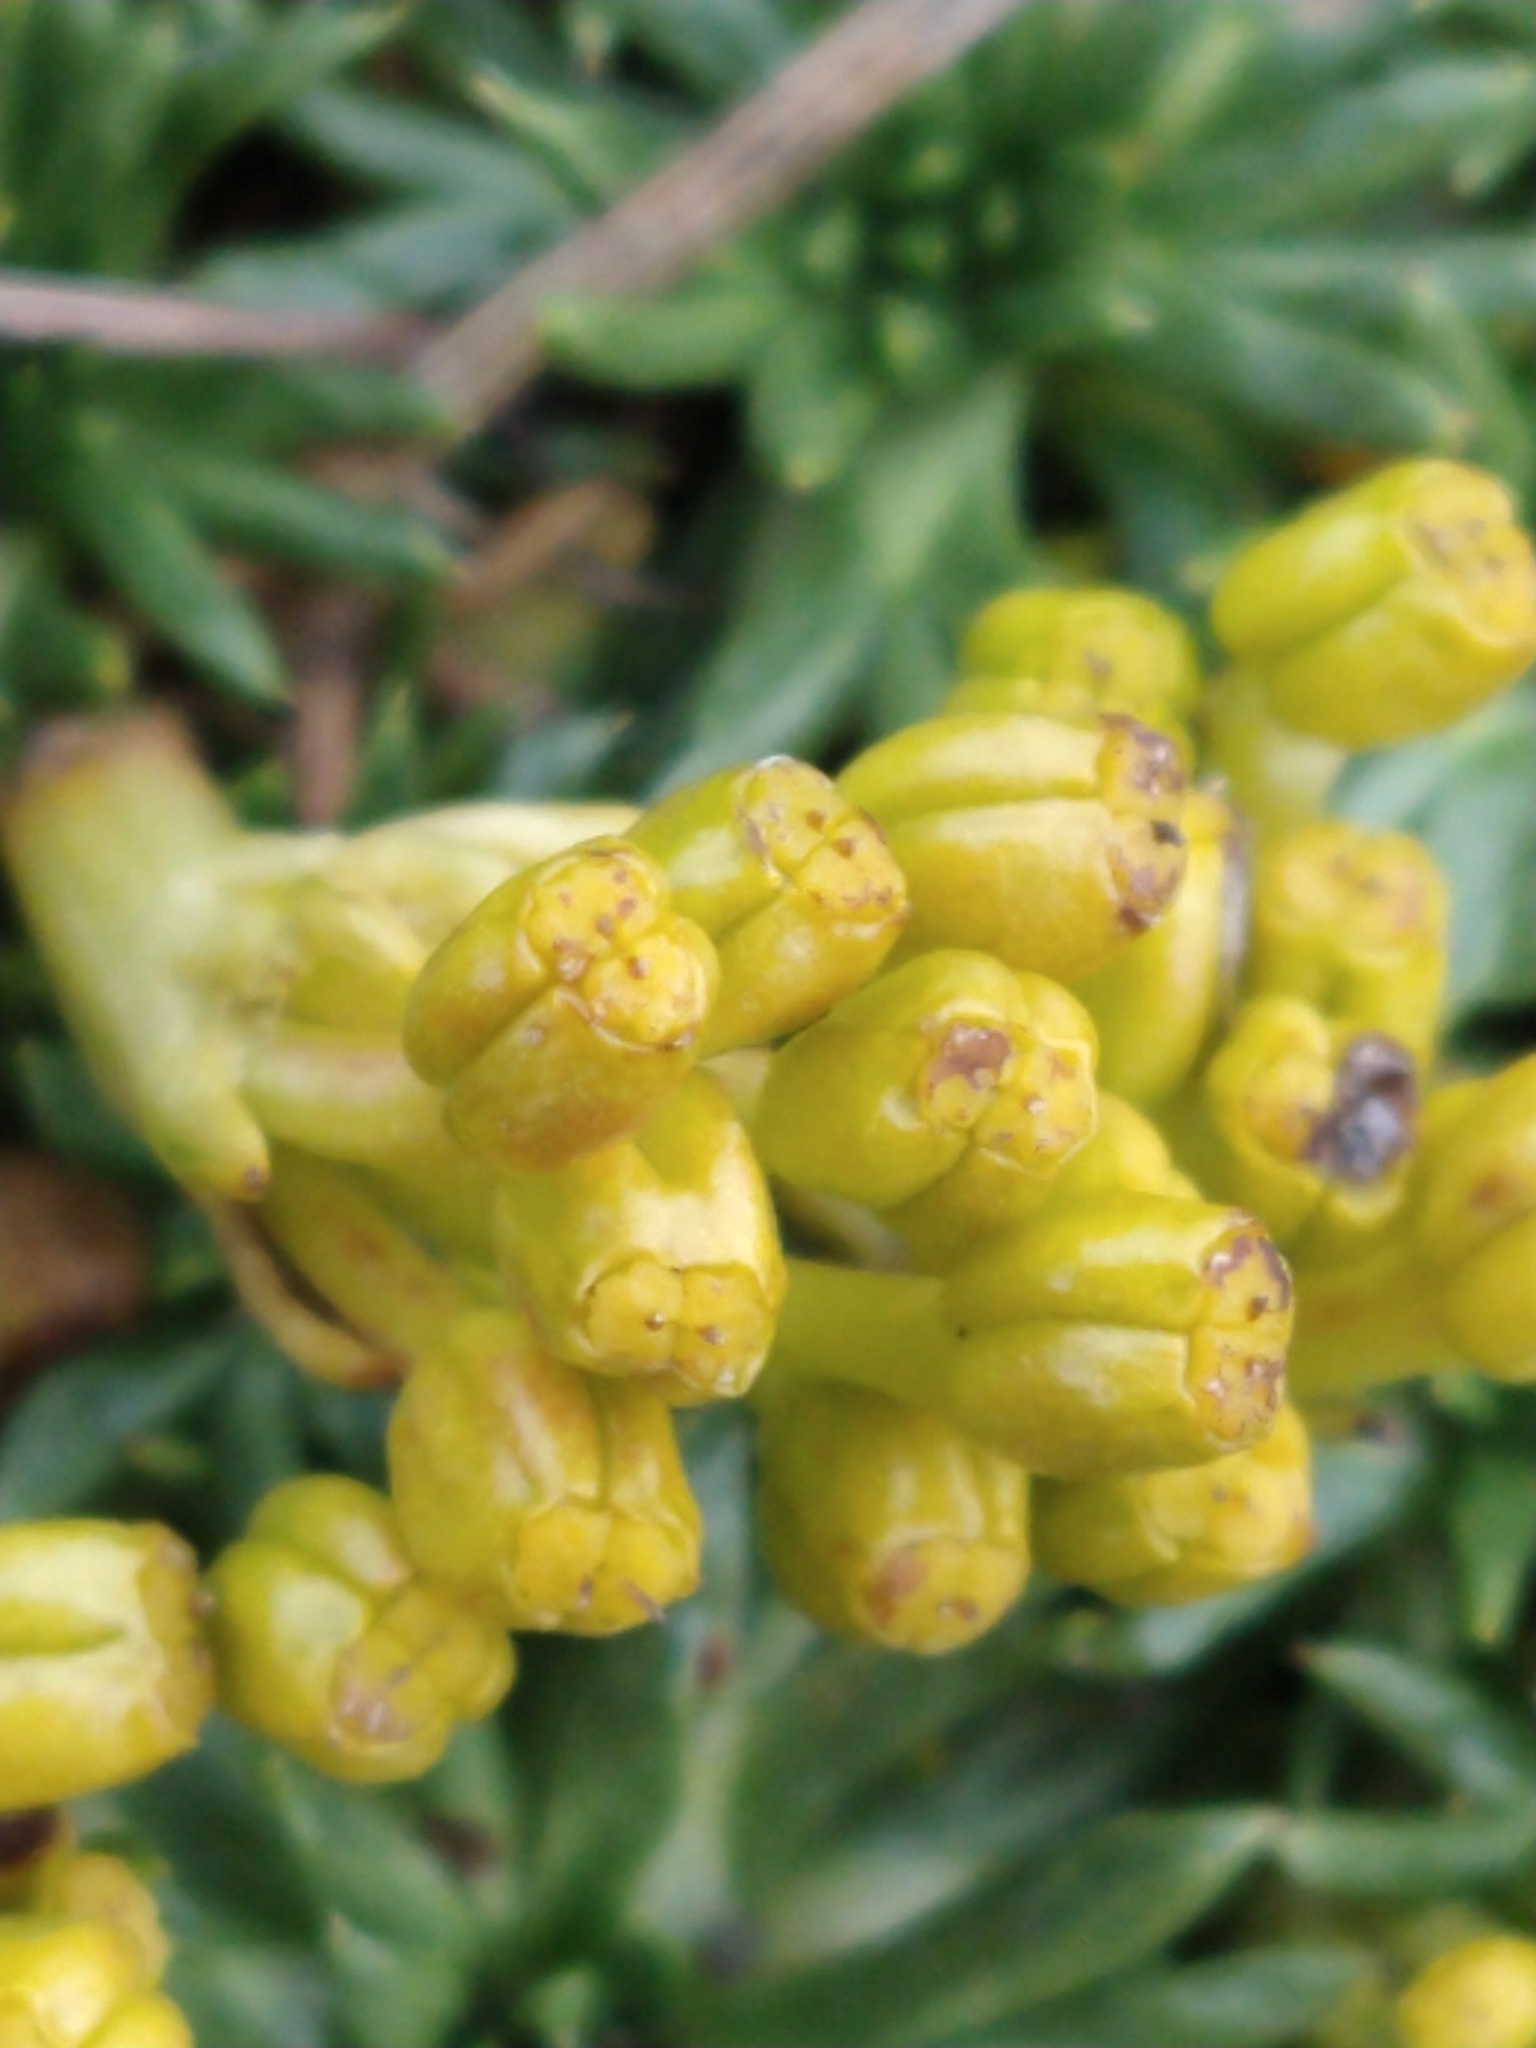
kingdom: Plantae
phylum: Tracheophyta
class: Magnoliopsida
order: Apiales
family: Apiaceae
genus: Azorella
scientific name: Azorella trifurcata
